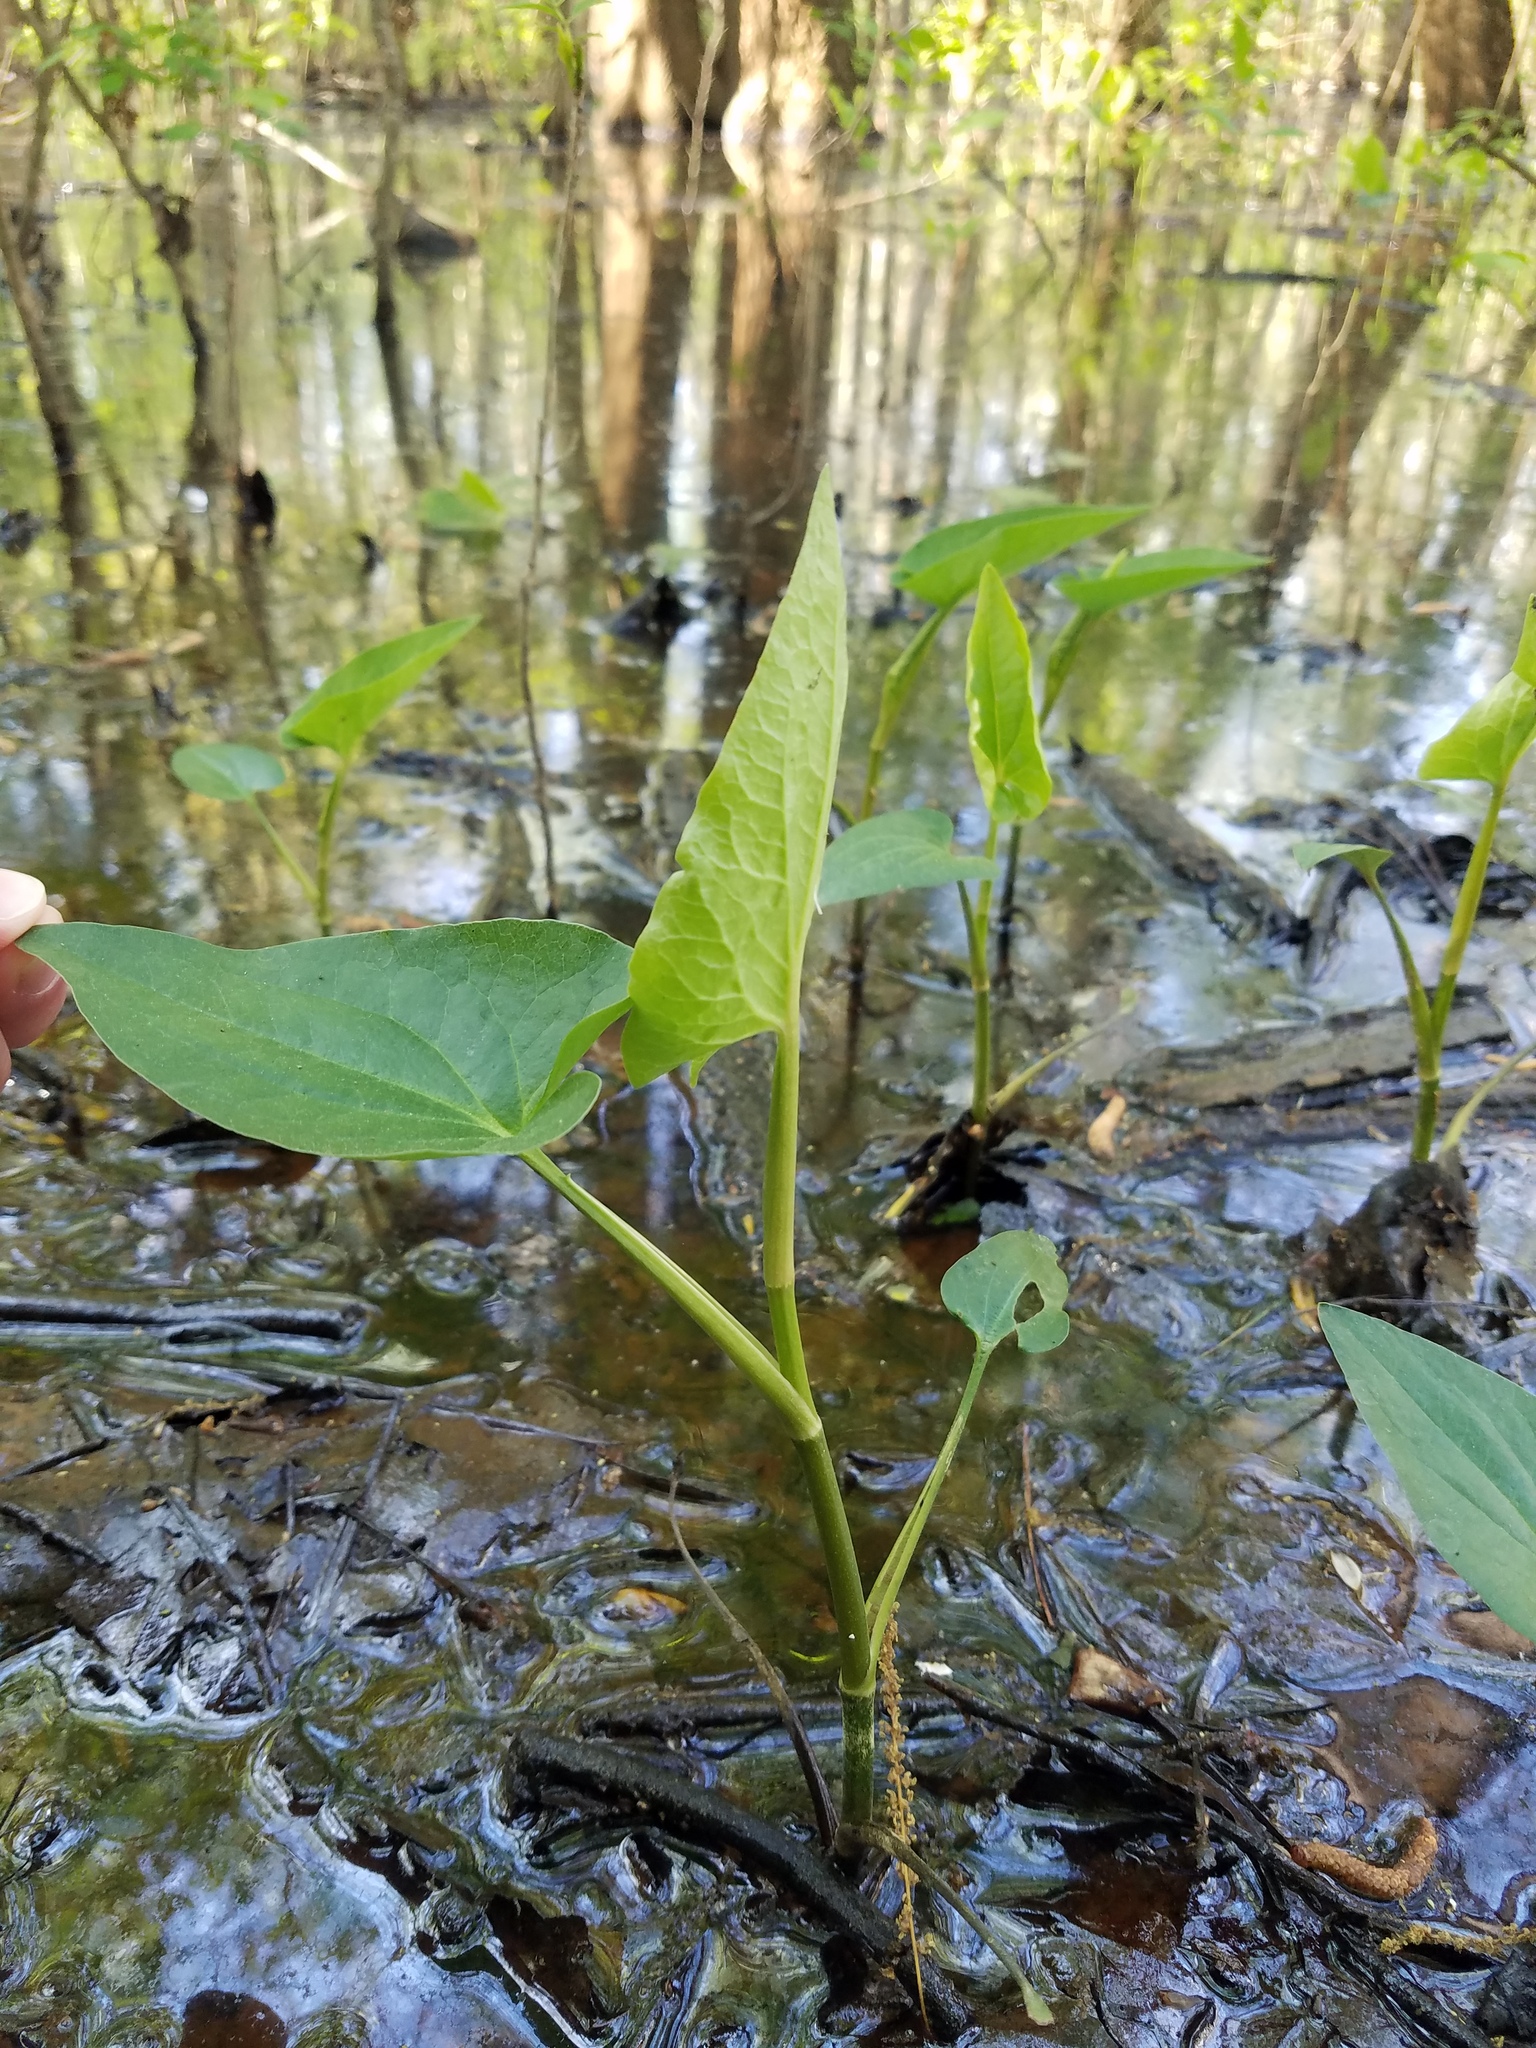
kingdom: Plantae
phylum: Tracheophyta
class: Magnoliopsida
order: Piperales
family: Saururaceae
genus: Saururus
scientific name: Saururus cernuus
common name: Lizard's-tail
